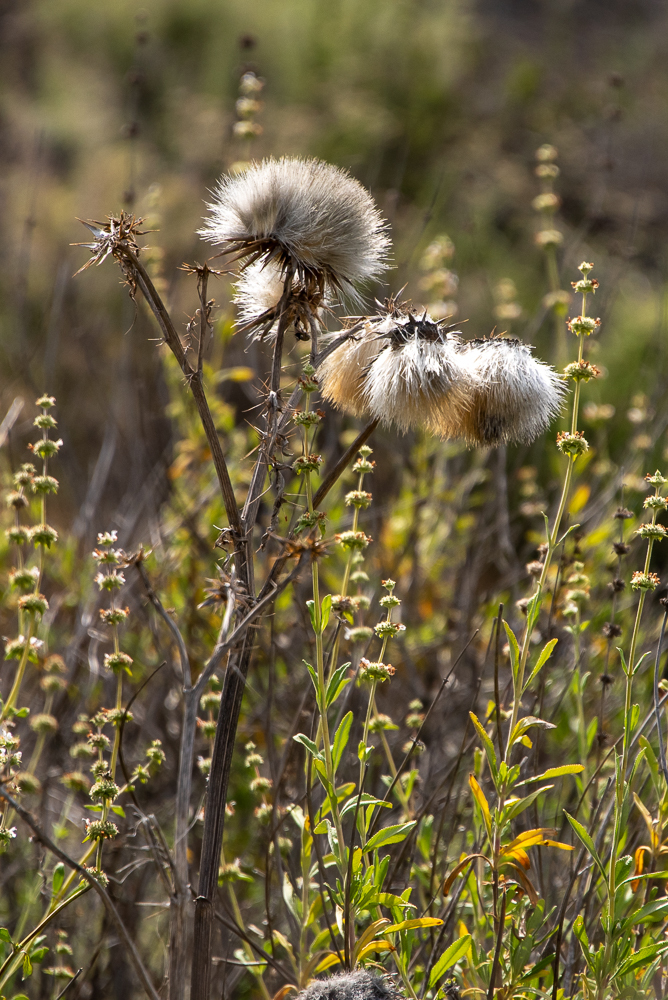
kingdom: Plantae
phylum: Tracheophyta
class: Magnoliopsida
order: Asterales
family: Asteraceae
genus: Cynara
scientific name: Cynara cardunculus
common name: Globe artichoke
